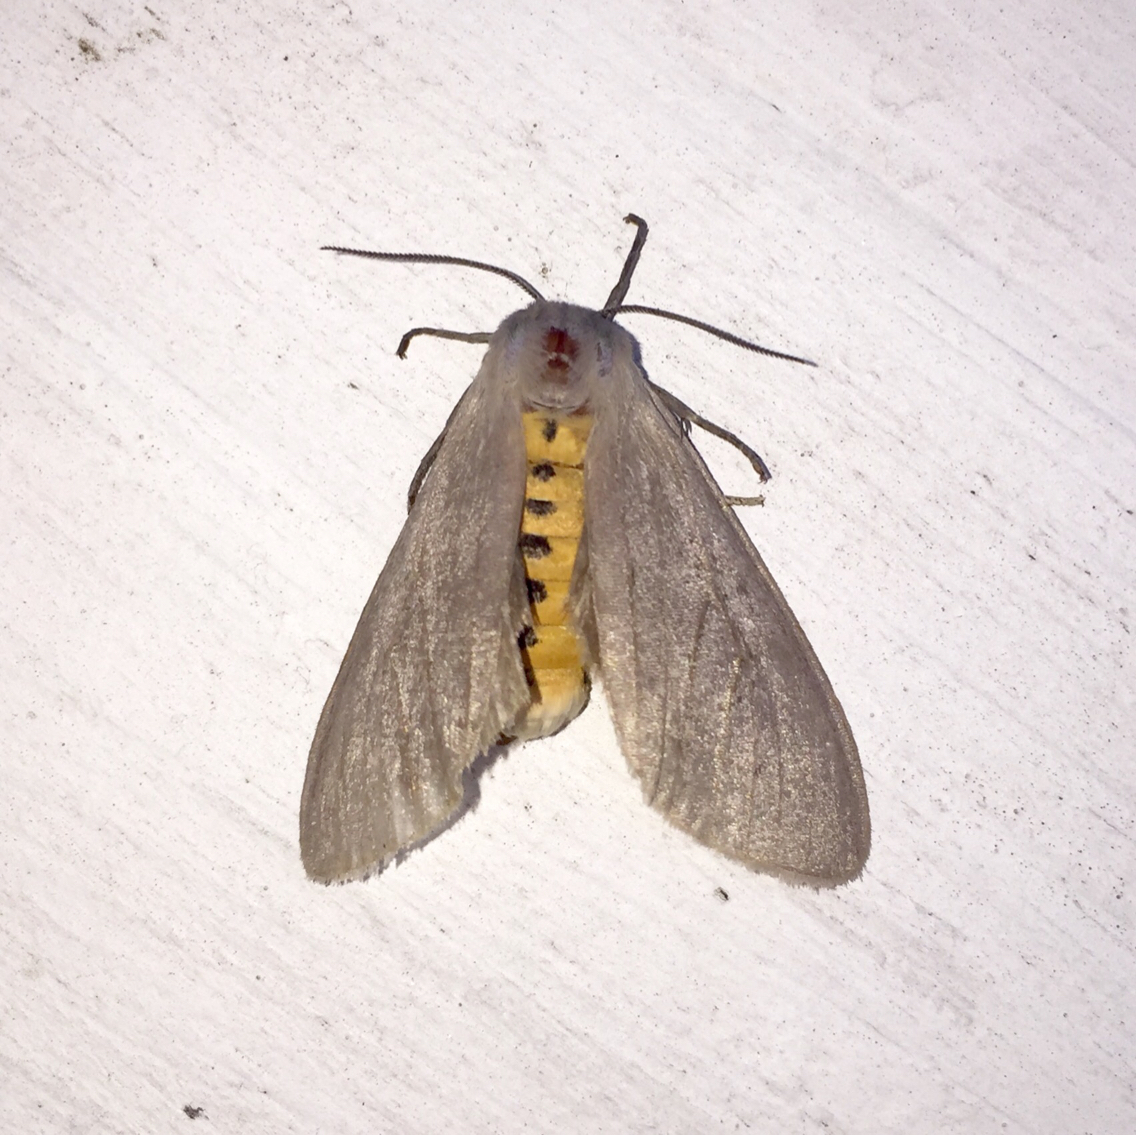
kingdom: Animalia
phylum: Arthropoda
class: Insecta
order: Lepidoptera
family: Erebidae
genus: Euchaetes
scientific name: Euchaetes egle
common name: Milkweed tussock moth
